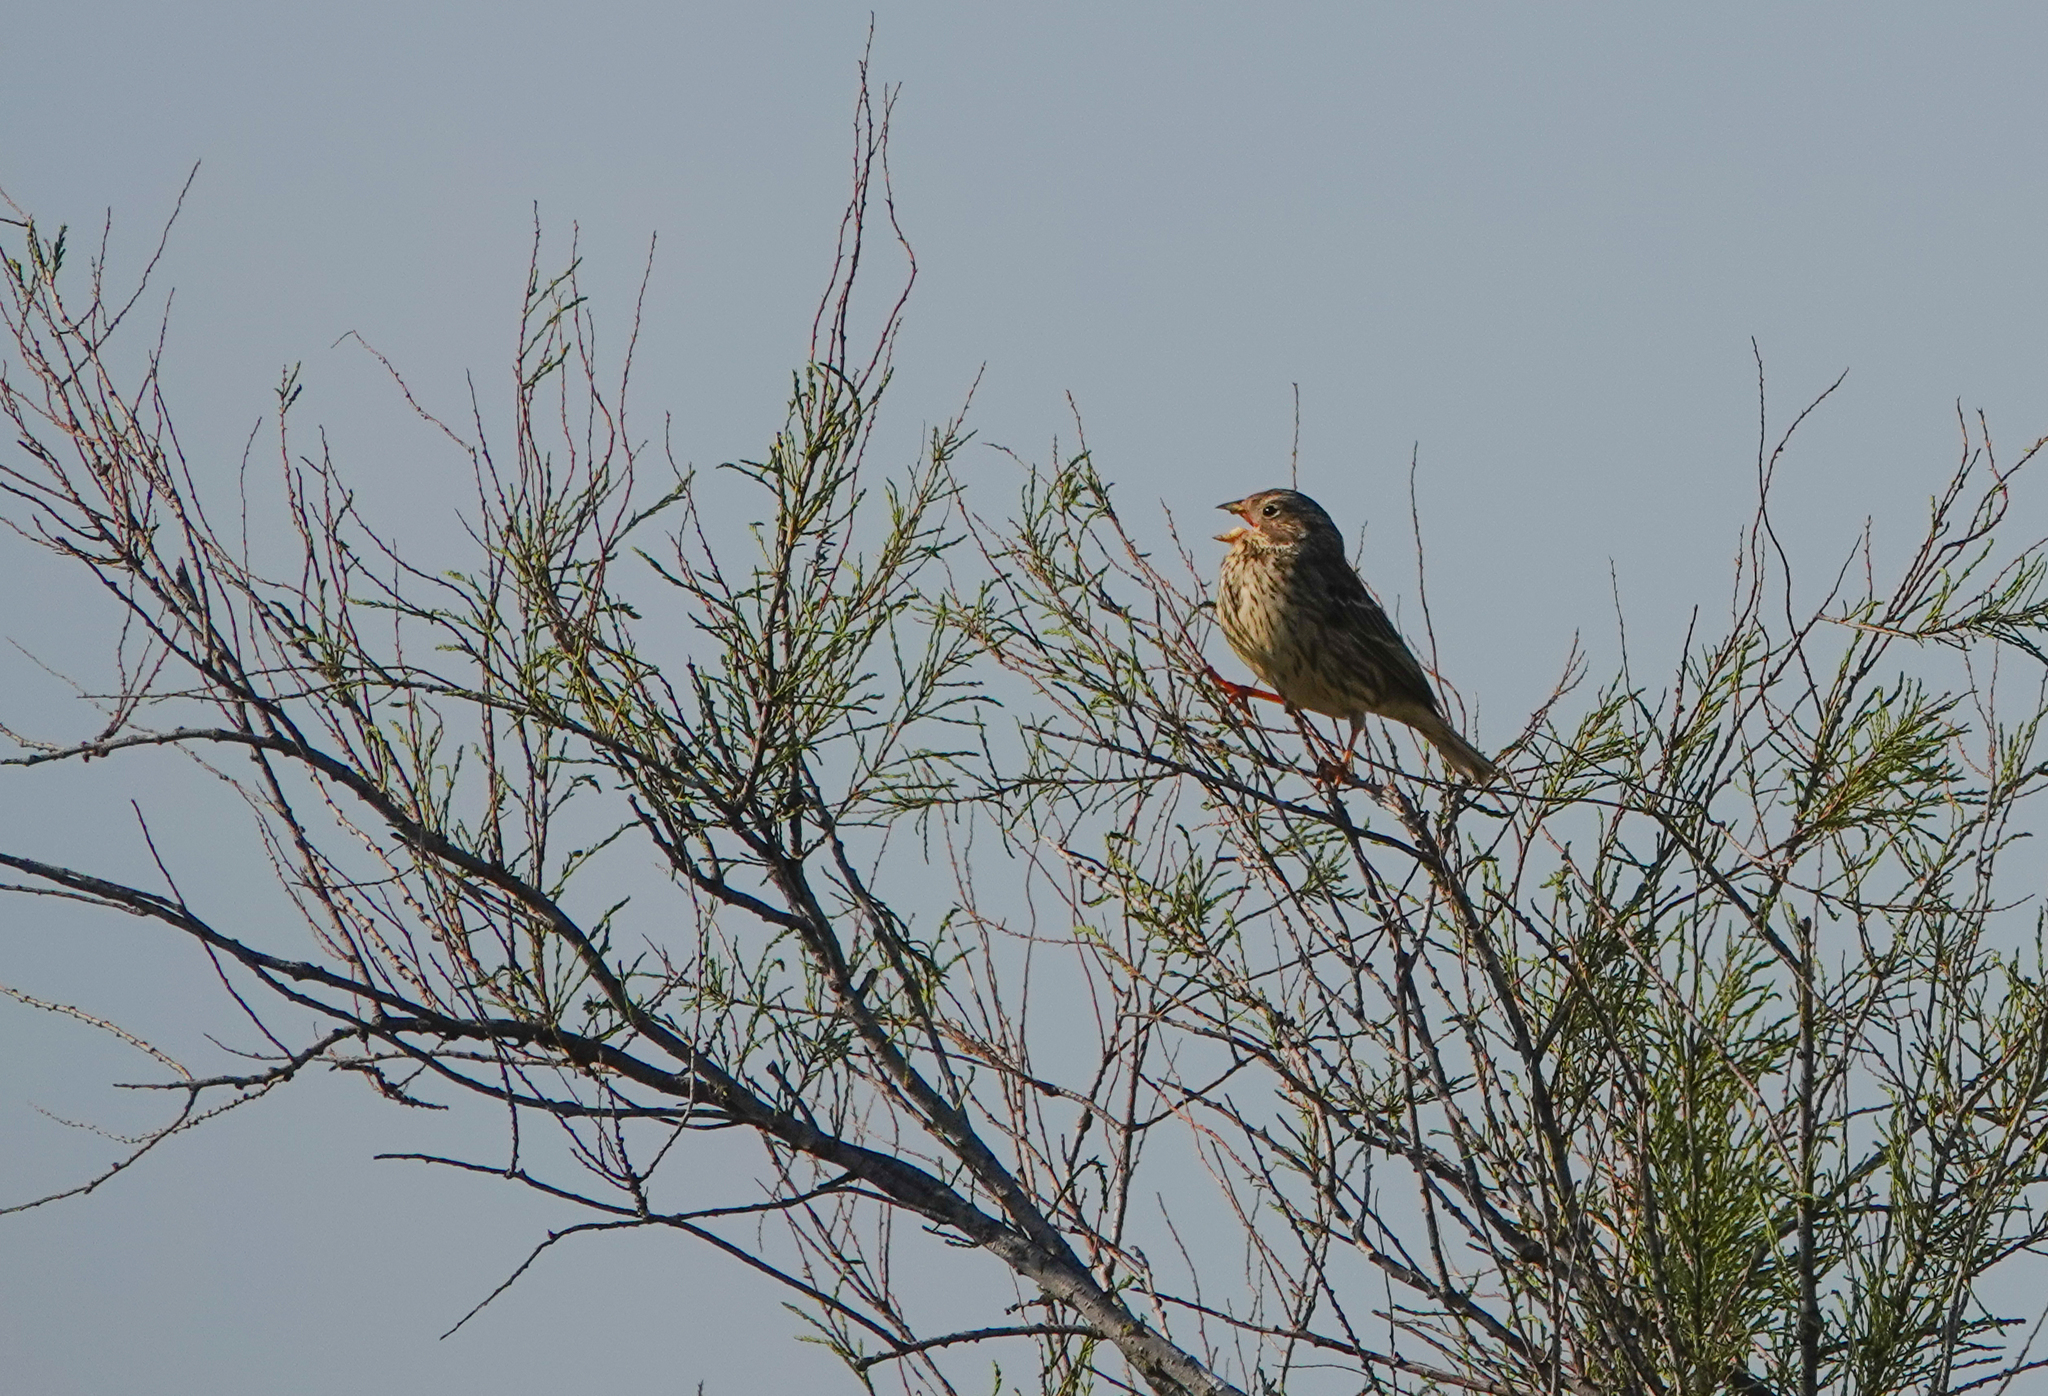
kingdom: Animalia
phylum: Chordata
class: Aves
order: Passeriformes
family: Emberizidae
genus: Emberiza
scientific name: Emberiza calandra
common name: Corn bunting
